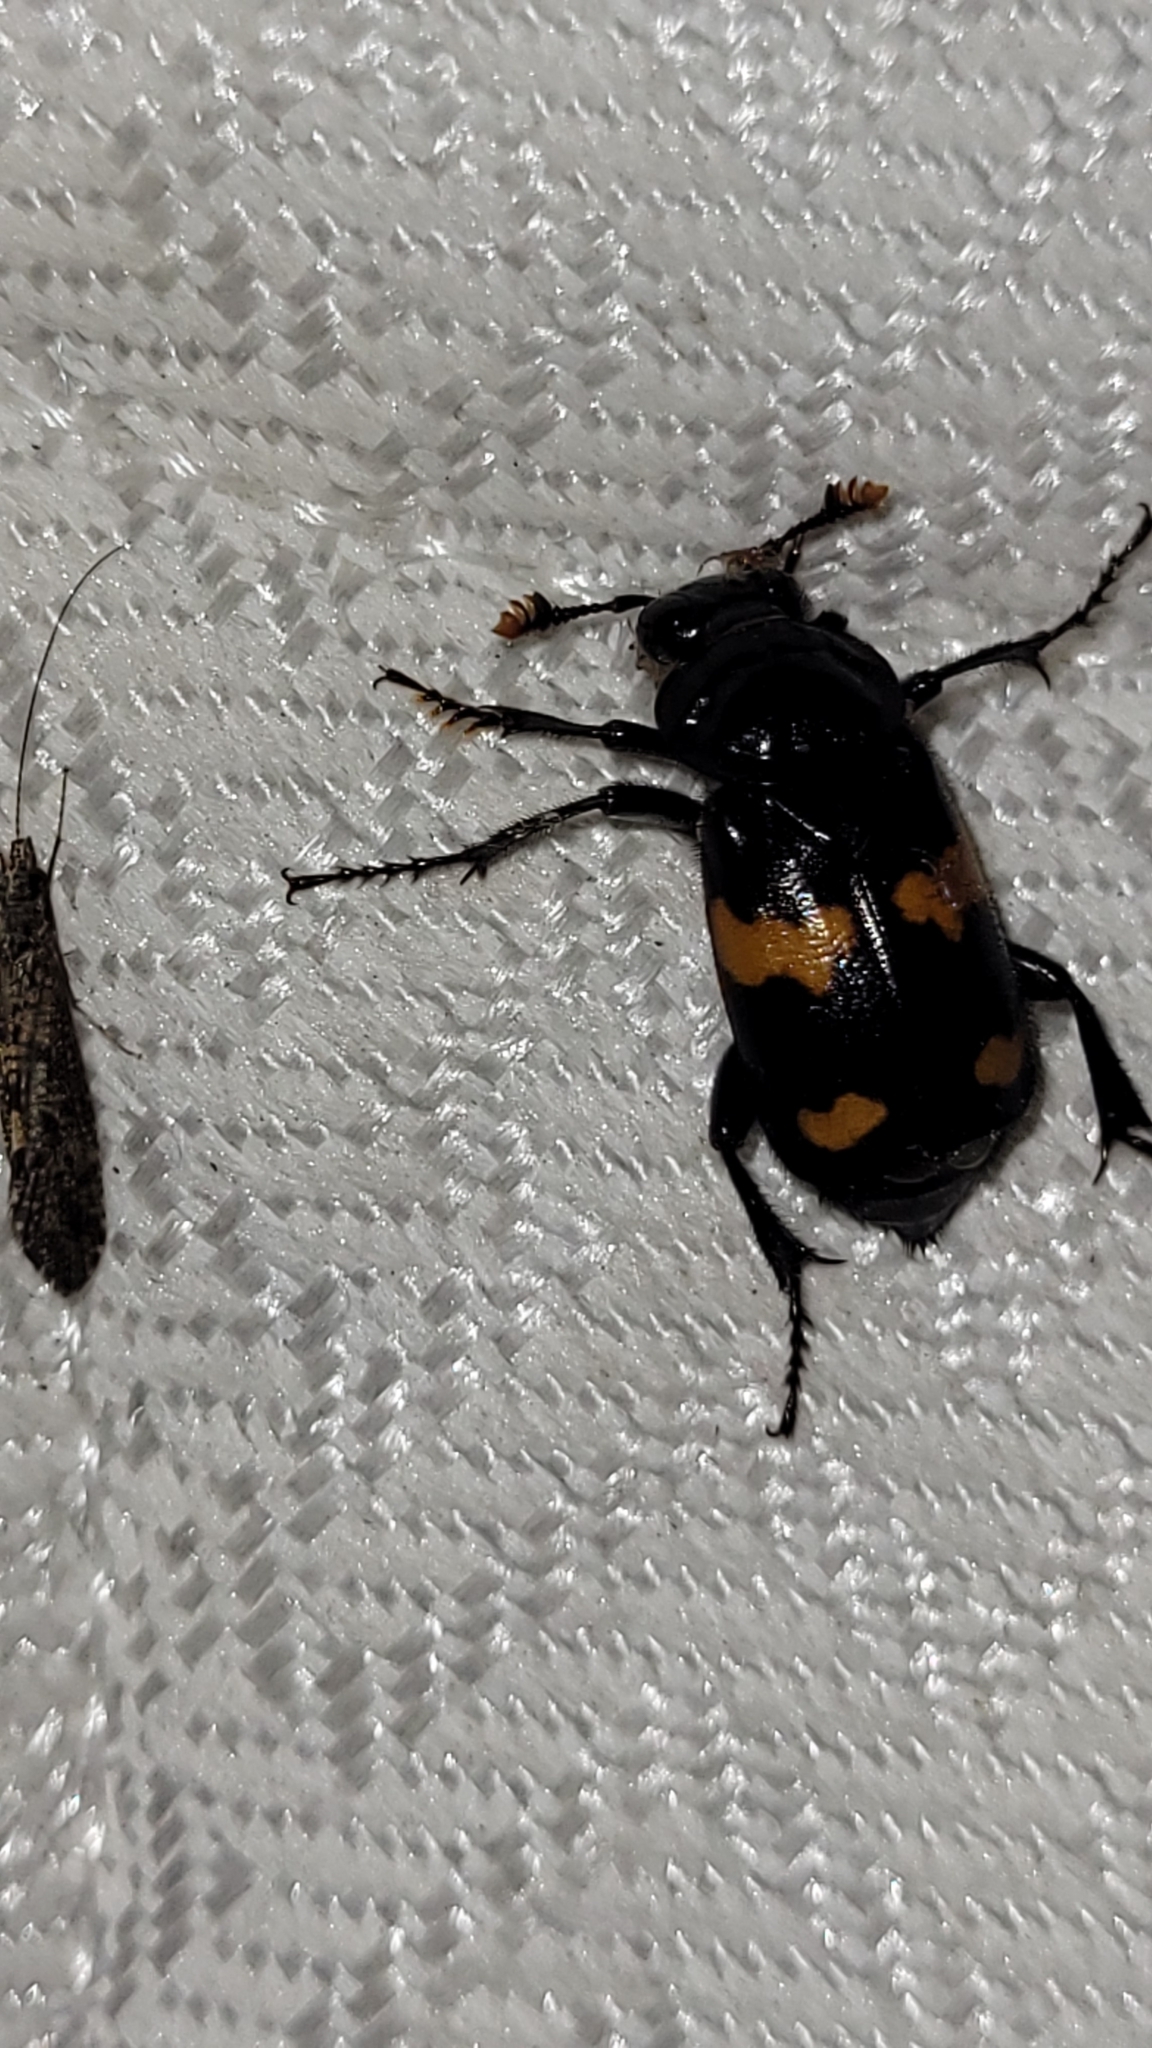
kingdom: Animalia
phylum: Arthropoda
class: Insecta
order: Coleoptera
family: Staphylinidae
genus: Nicrophorus
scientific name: Nicrophorus orbicollis
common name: Roundneck sexton beetle
